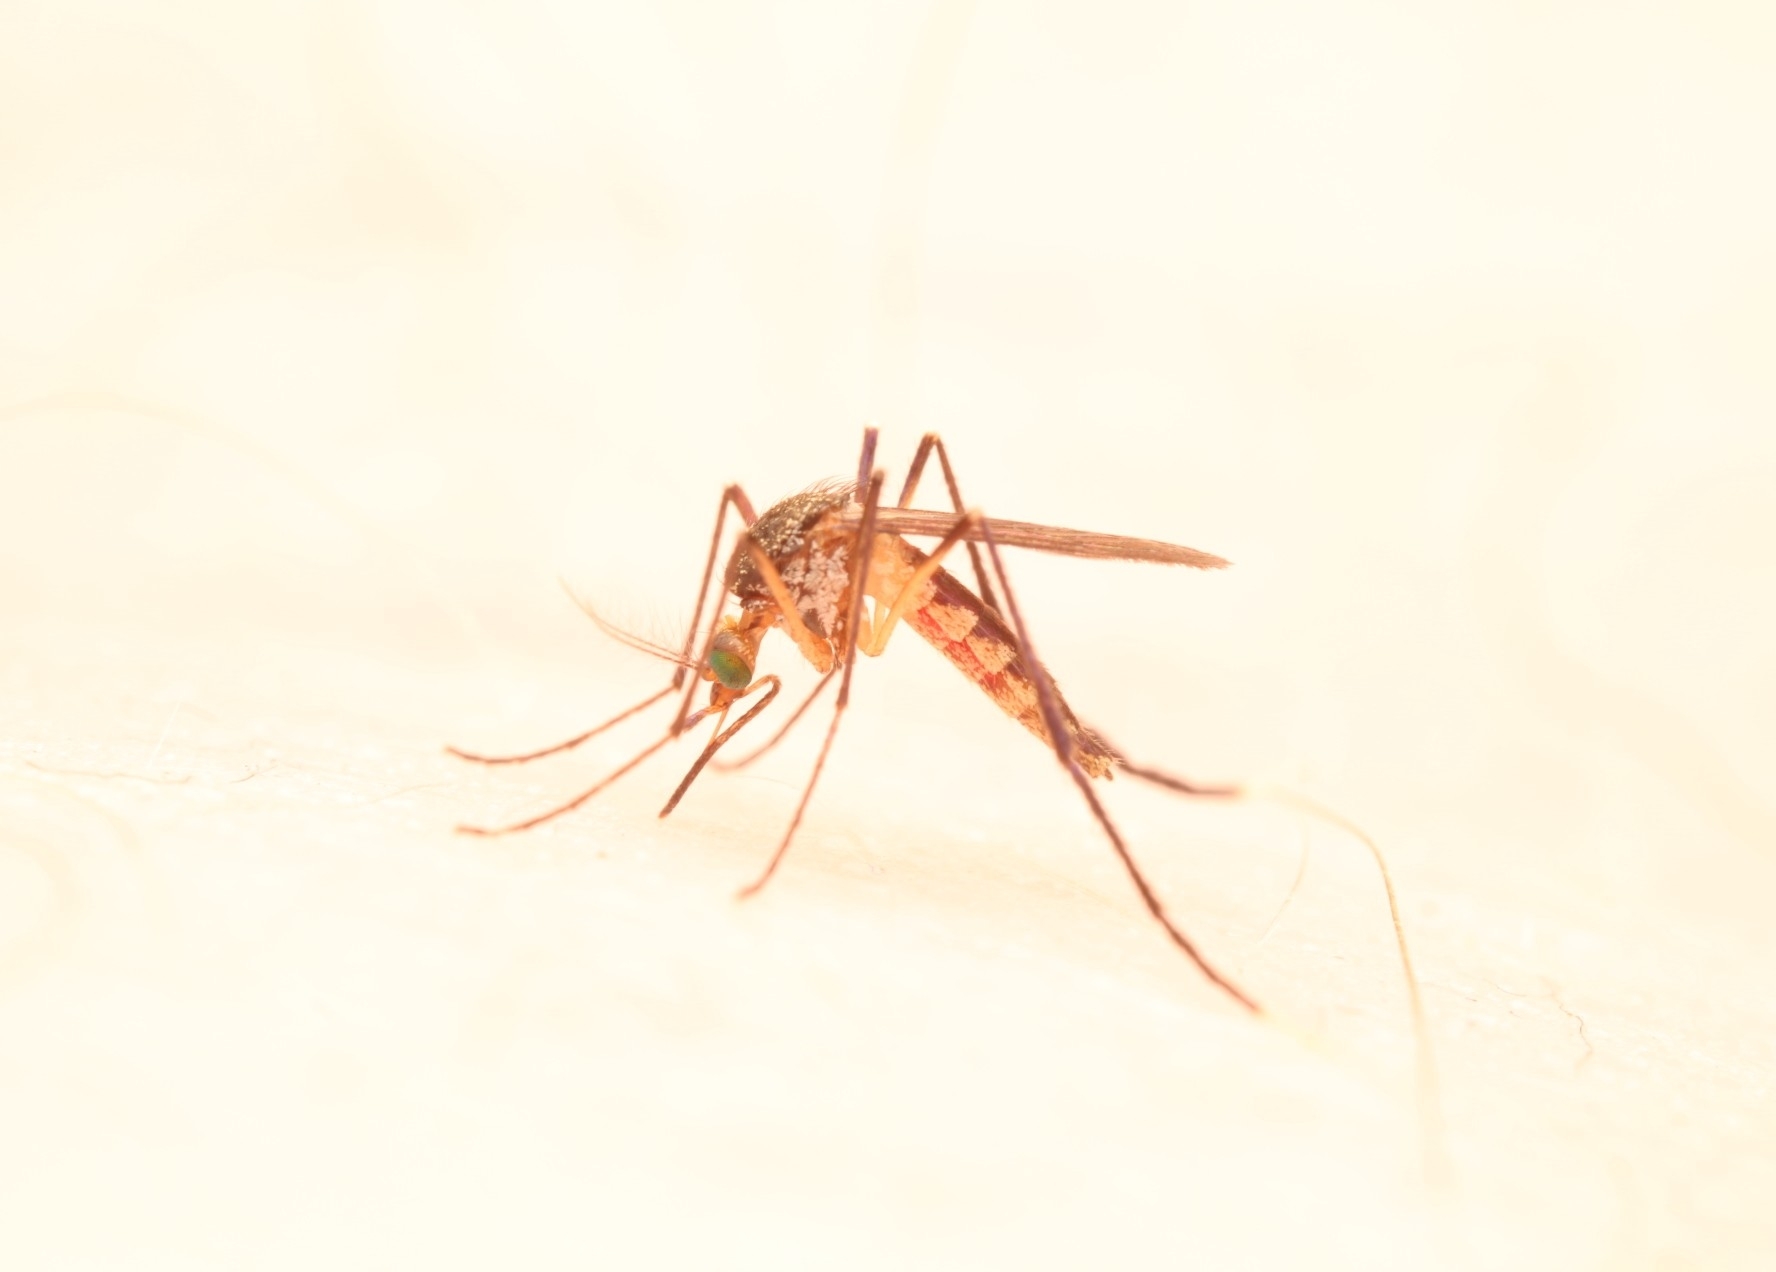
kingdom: Animalia
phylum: Arthropoda
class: Insecta
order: Diptera
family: Culicidae
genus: Psorophora
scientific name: Psorophora ferox
